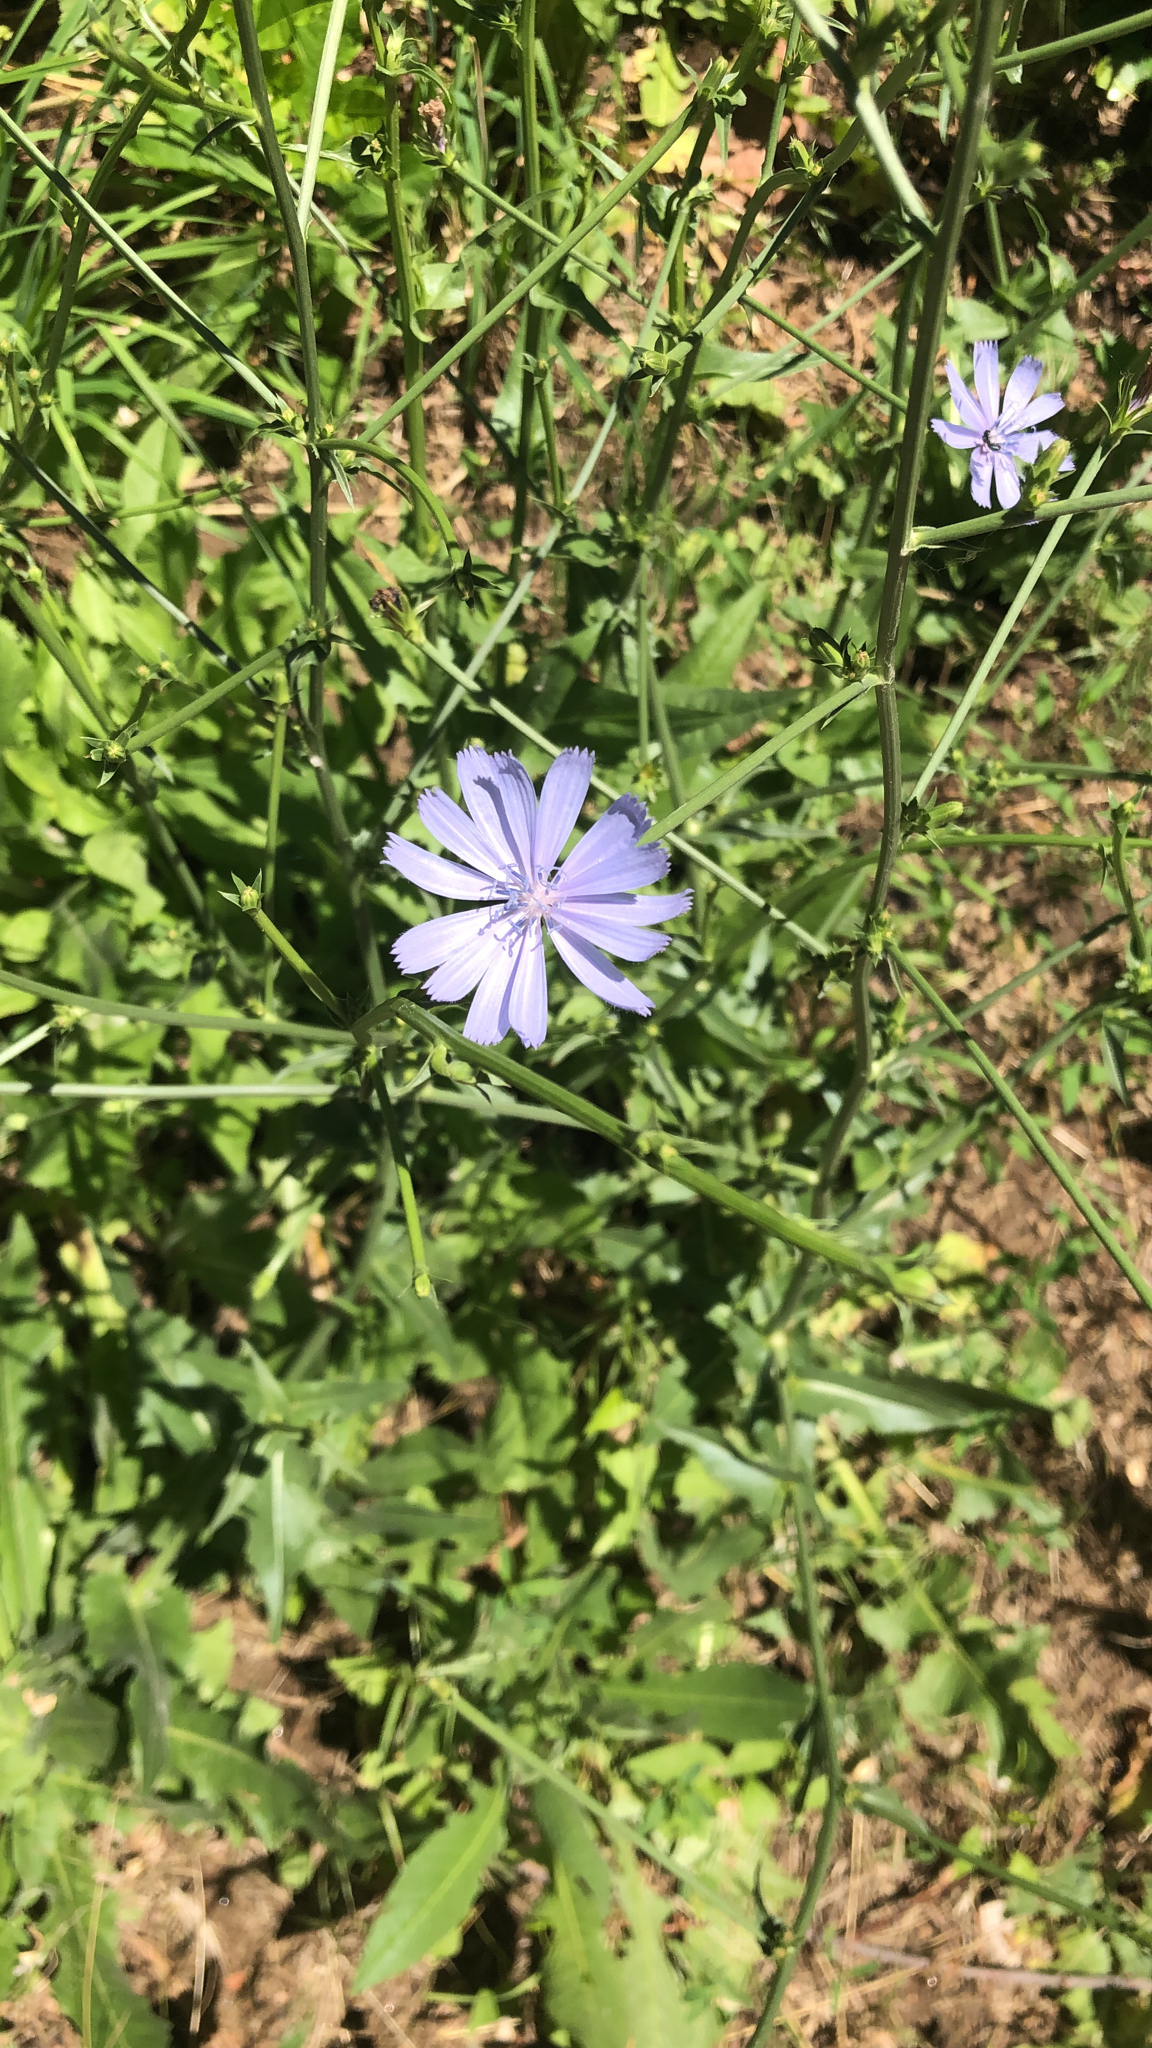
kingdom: Plantae
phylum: Tracheophyta
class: Magnoliopsida
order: Asterales
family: Asteraceae
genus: Cichorium
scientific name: Cichorium intybus
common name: Chicory
